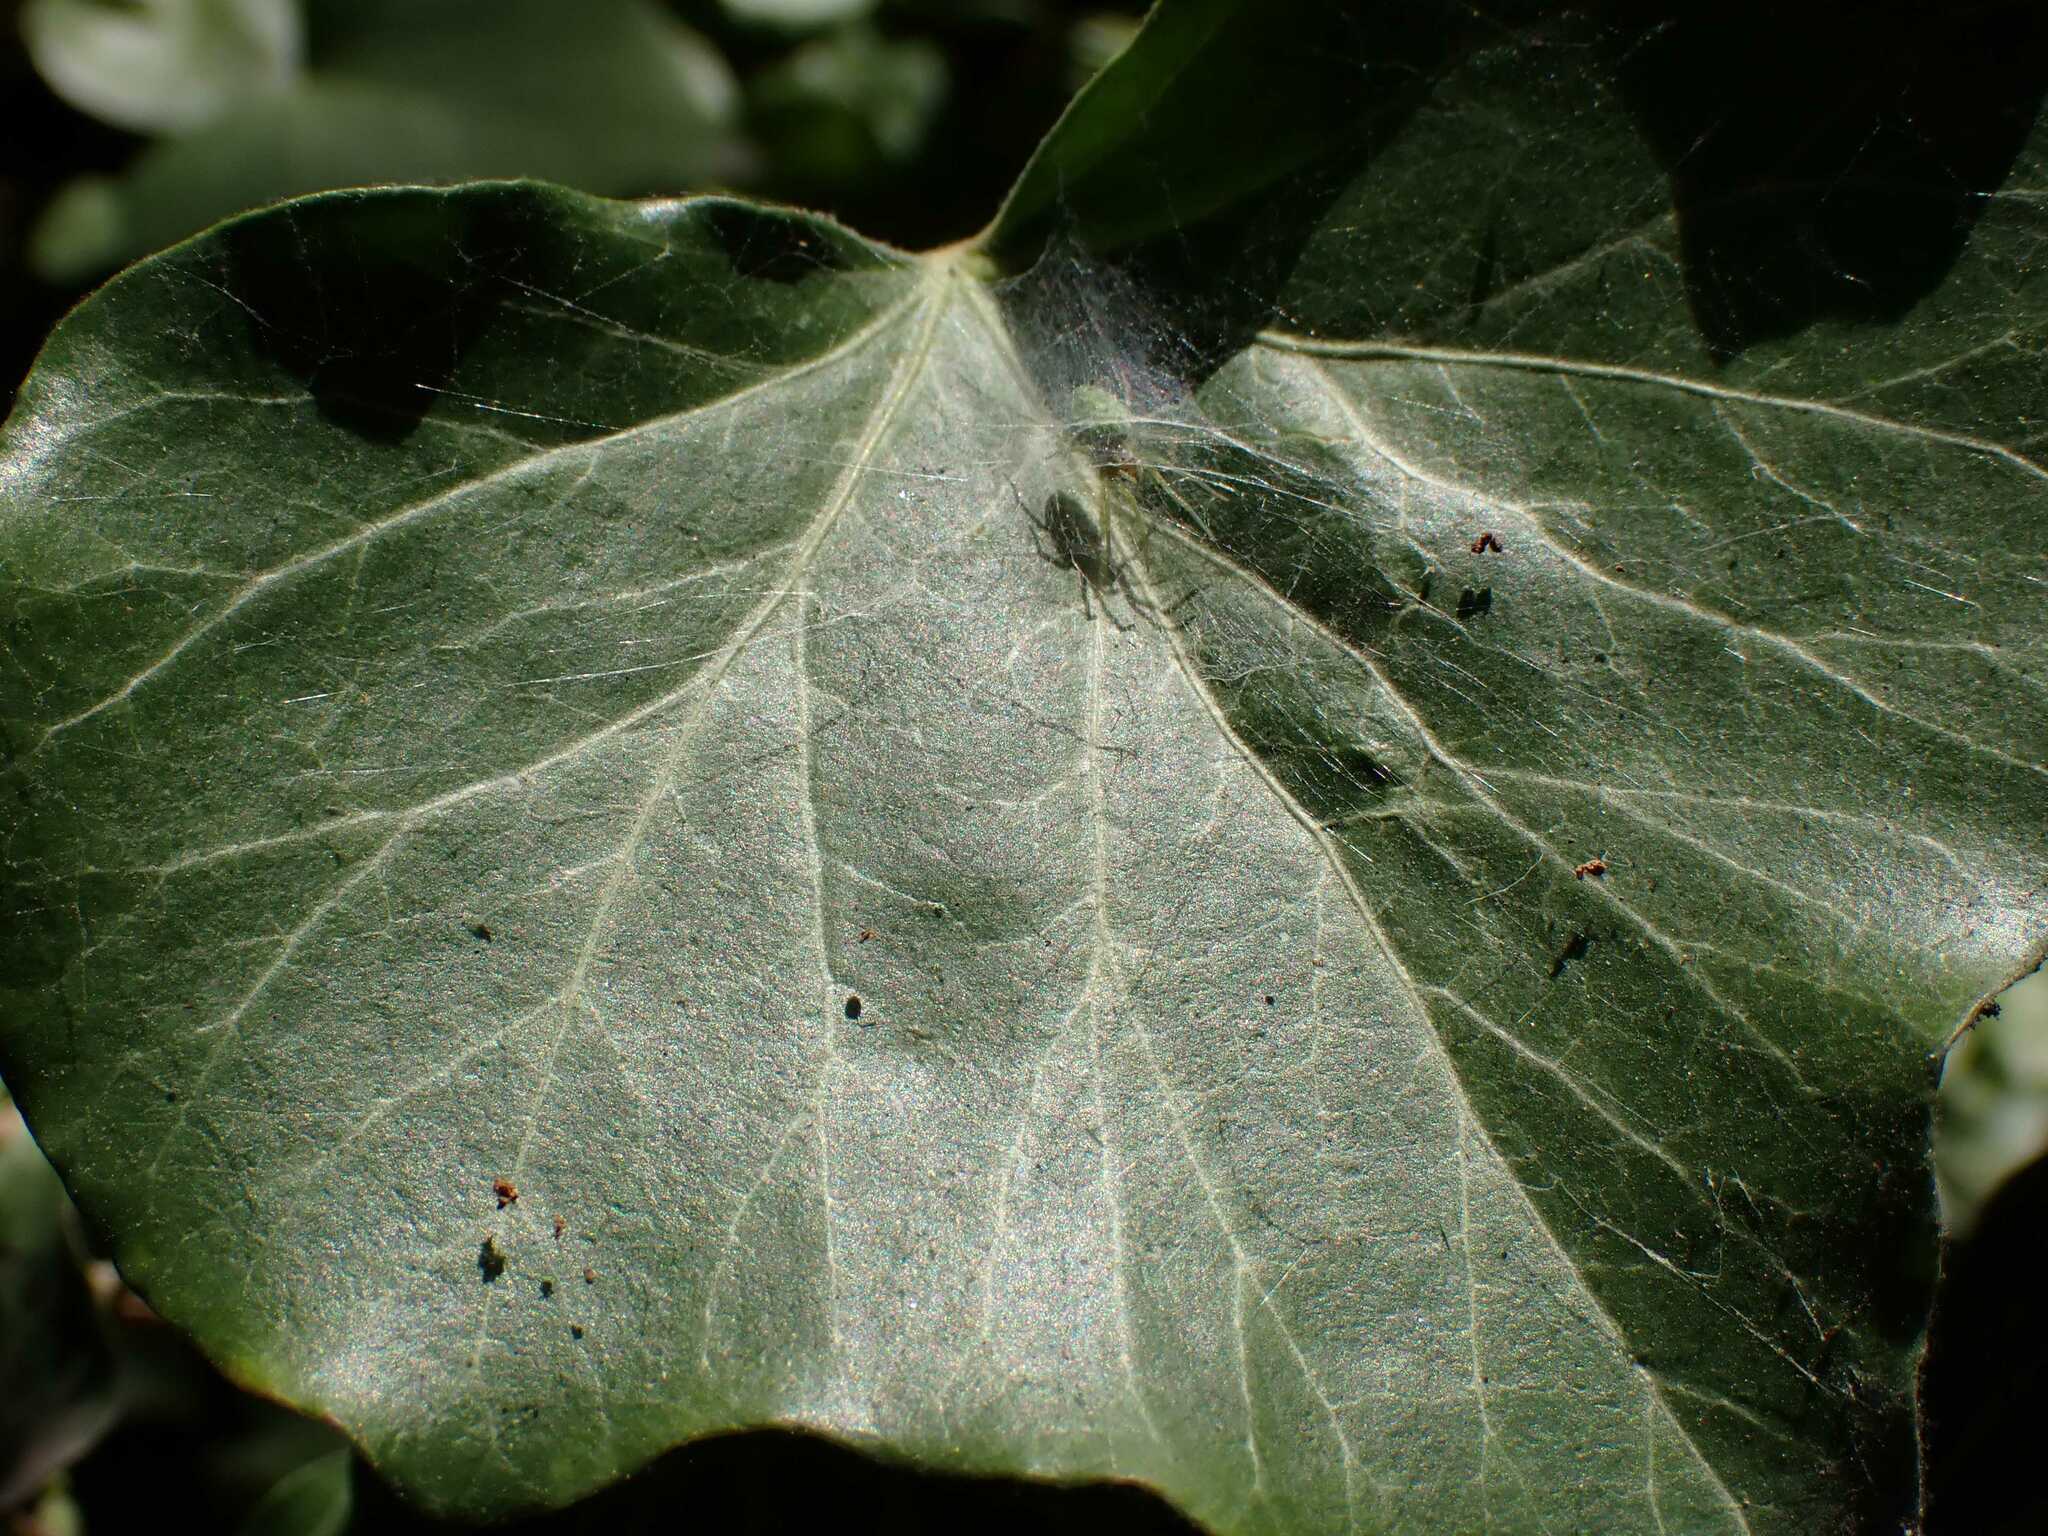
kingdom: Animalia
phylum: Arthropoda
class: Arachnida
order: Araneae
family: Dictynidae
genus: Nigma
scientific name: Nigma walckenaeri
